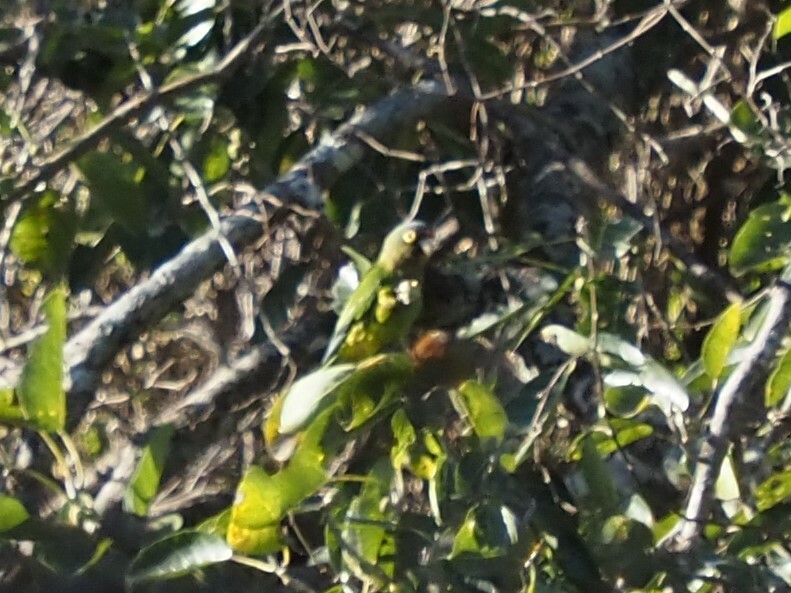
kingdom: Animalia
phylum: Chordata
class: Aves
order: Psittaciformes
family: Psittacidae
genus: Aratinga
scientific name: Aratinga canicularis
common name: Orange-fronted parakeet
